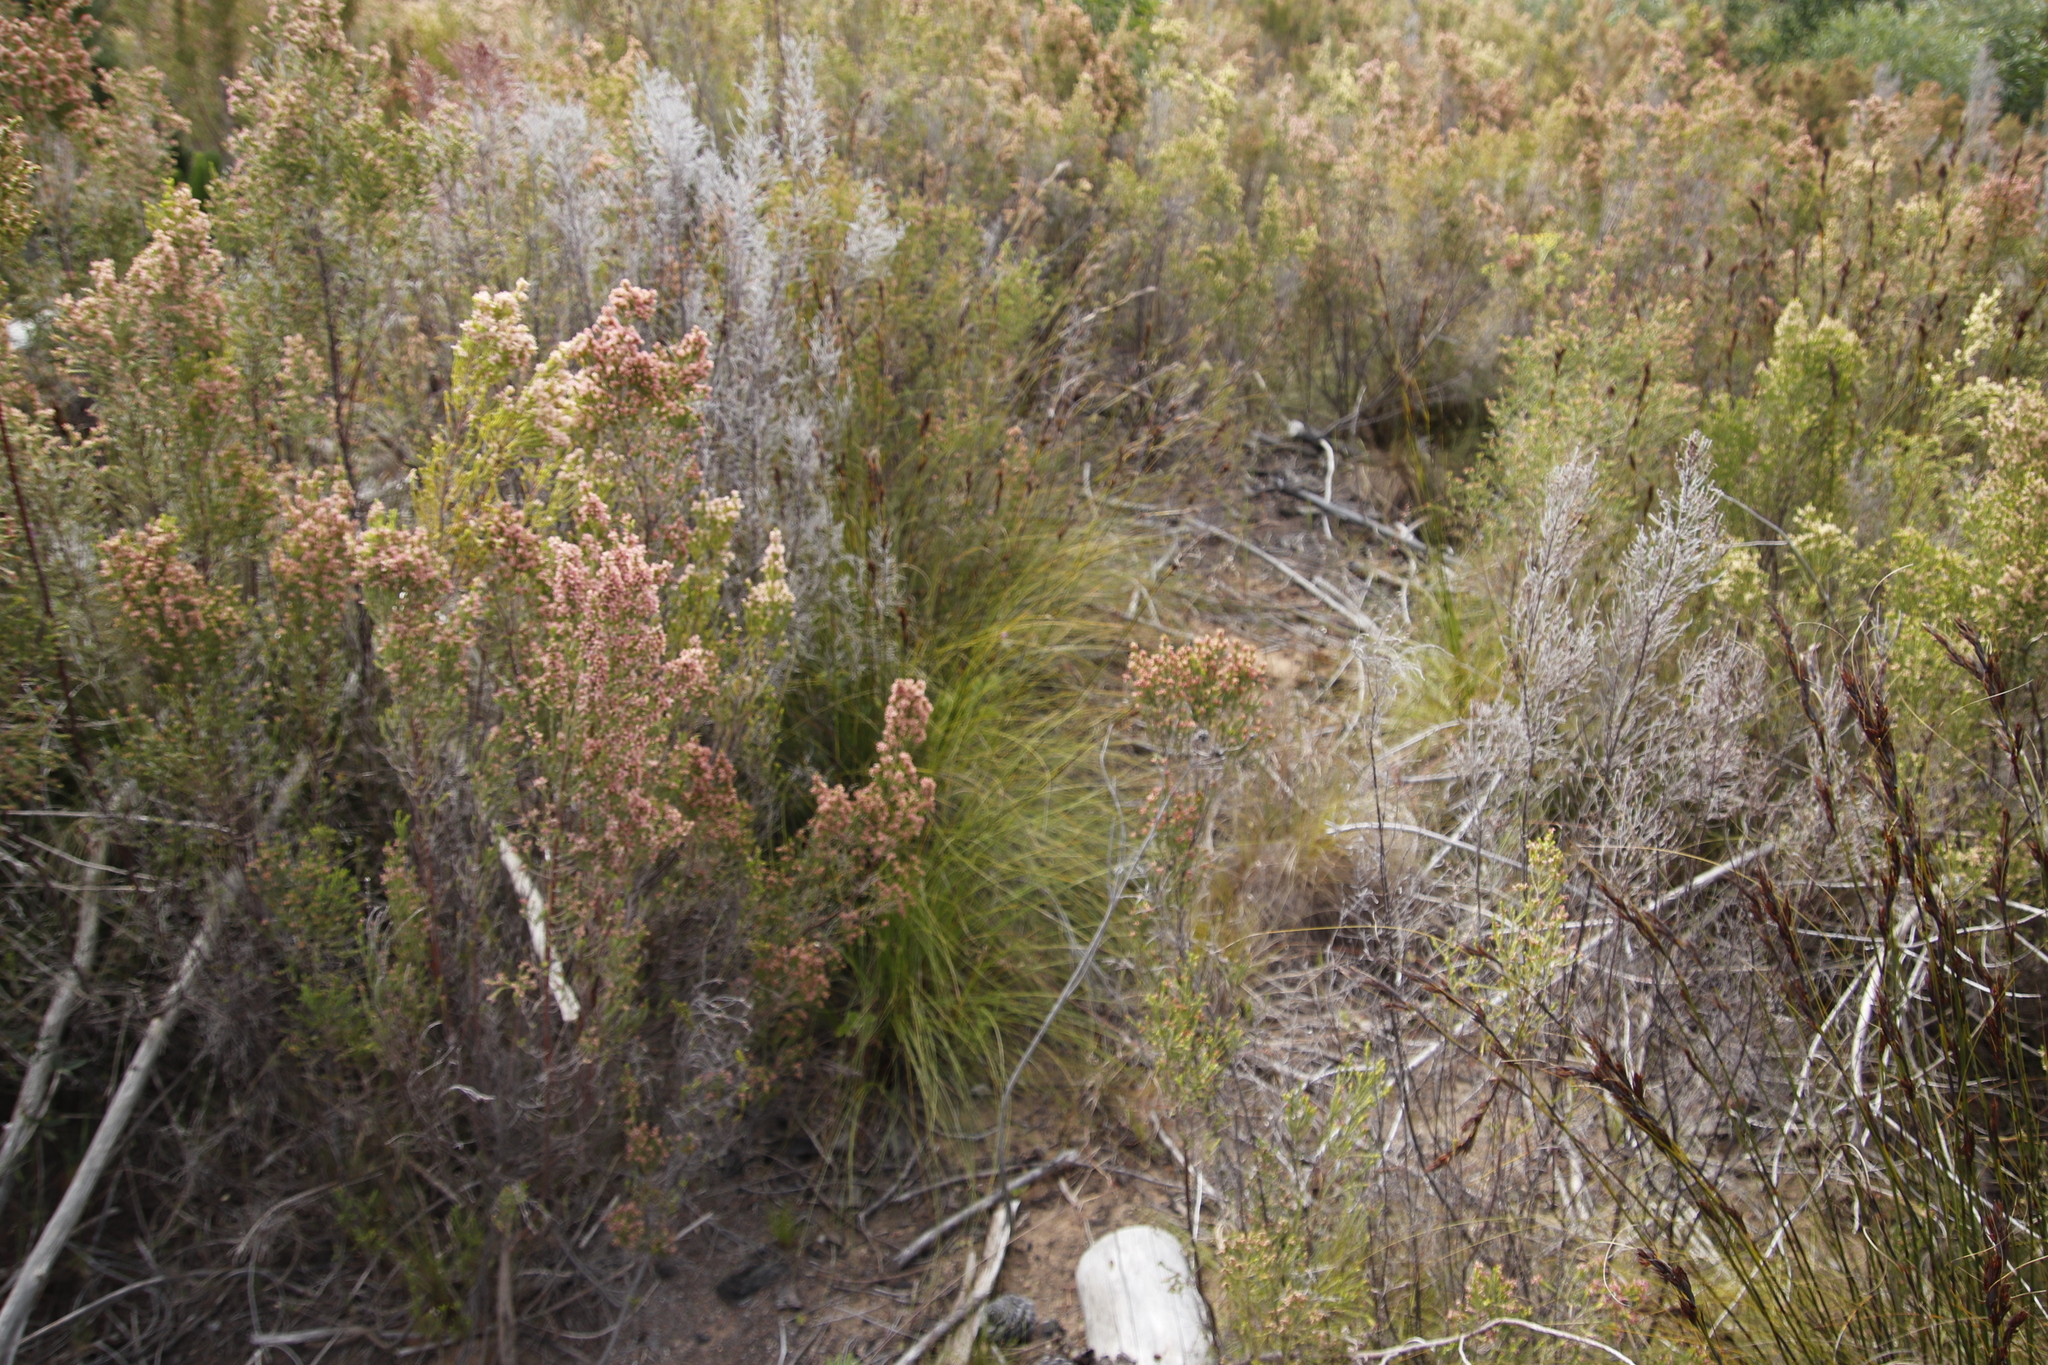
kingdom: Plantae
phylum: Tracheophyta
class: Liliopsida
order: Poales
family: Cyperaceae
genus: Tetraria
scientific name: Tetraria ustulata
